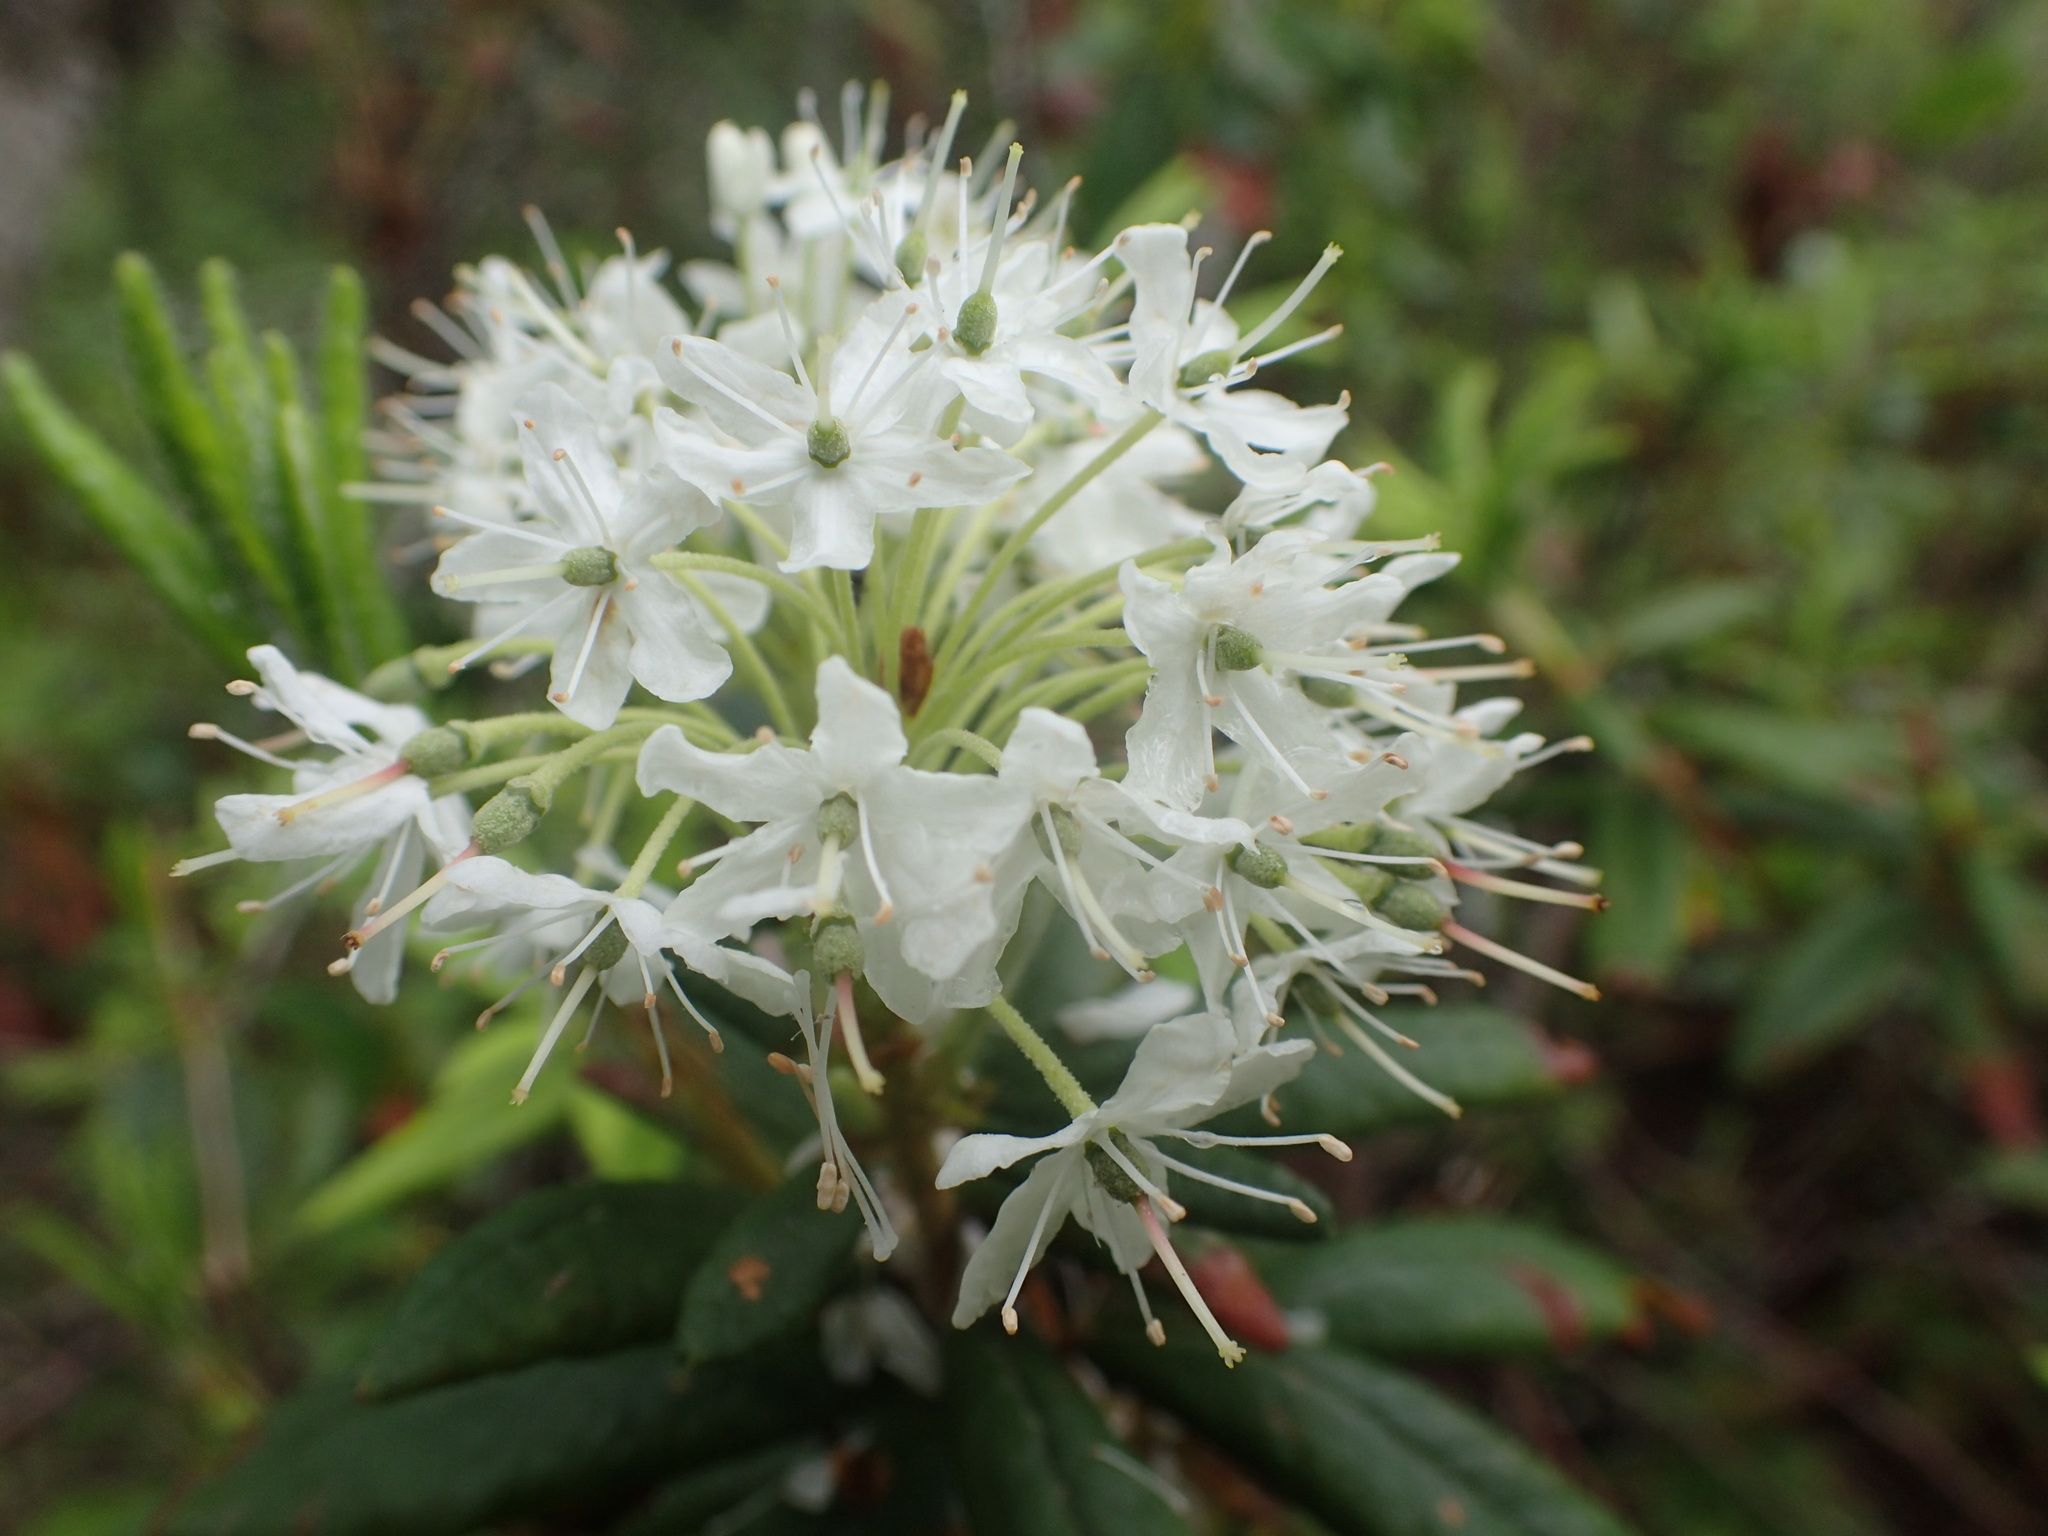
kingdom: Plantae
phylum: Tracheophyta
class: Magnoliopsida
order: Ericales
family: Ericaceae
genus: Rhododendron
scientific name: Rhododendron groenlandicum
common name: Bog labrador tea
